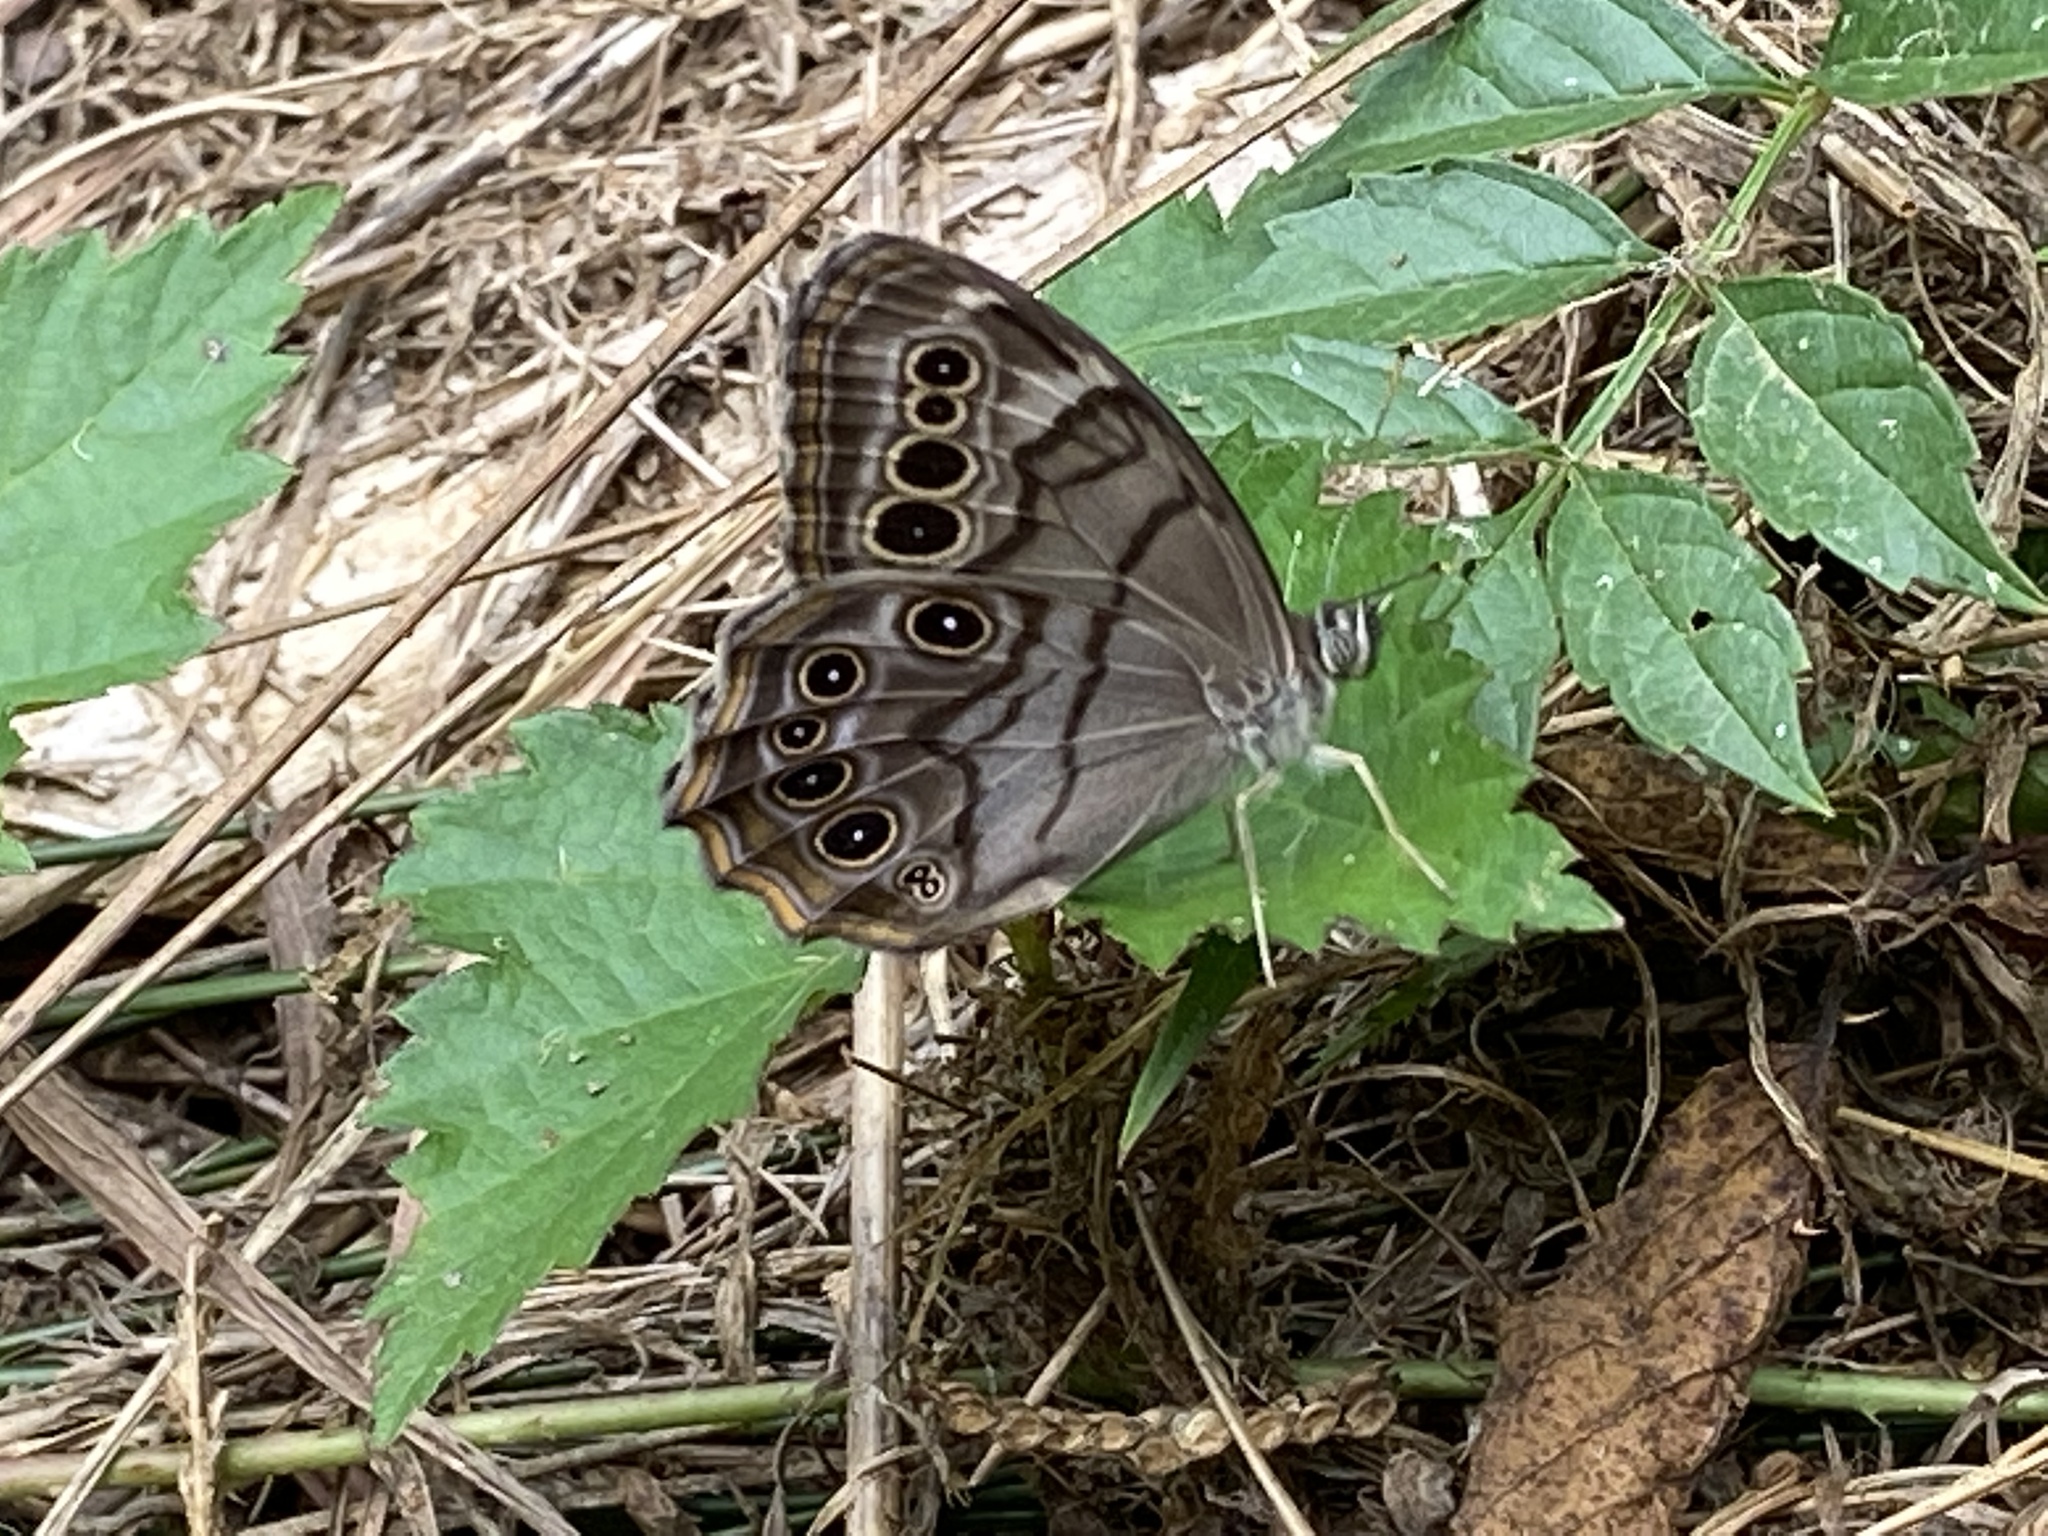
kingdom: Animalia
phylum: Arthropoda
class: Insecta
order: Lepidoptera
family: Nymphalidae
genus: Lethe
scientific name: Lethe anthedon
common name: Northern pearly-eye
